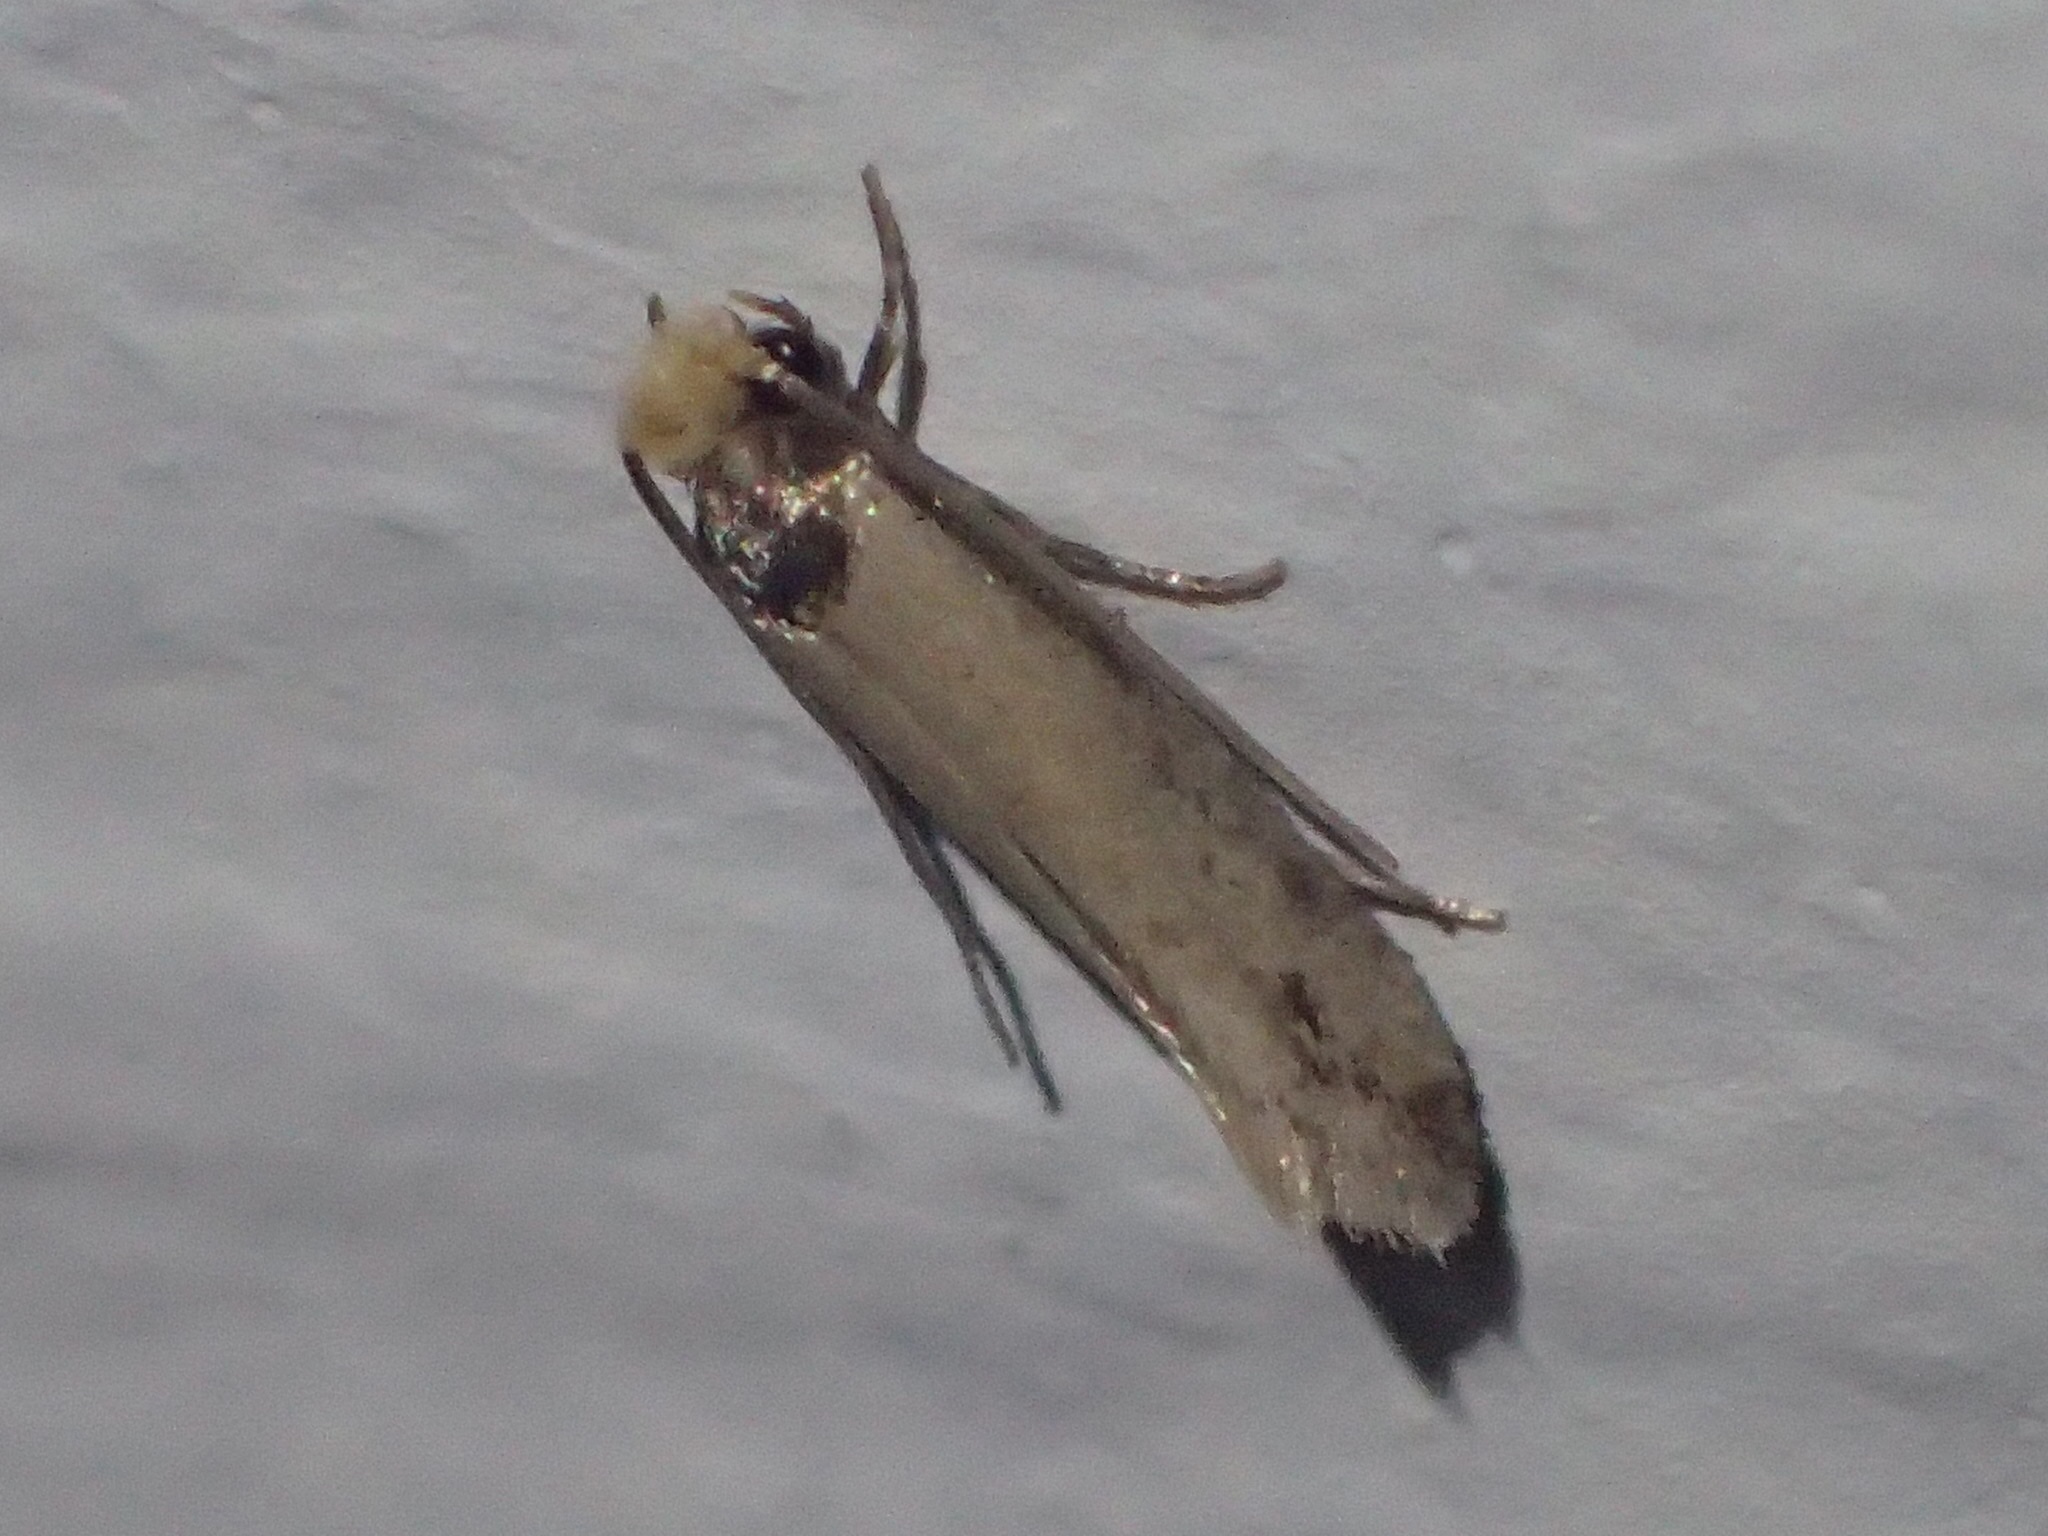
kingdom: Animalia
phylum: Arthropoda
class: Insecta
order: Lepidoptera
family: Meessiidae
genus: Homostinea
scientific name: Homostinea curviliniella
